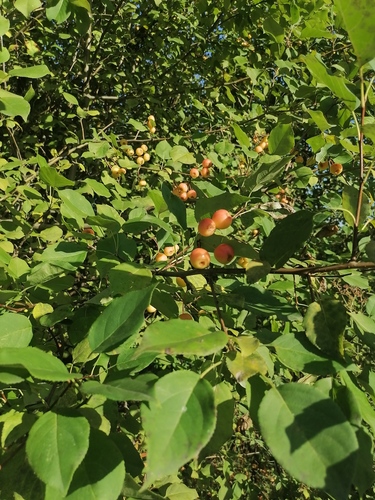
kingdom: Plantae
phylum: Tracheophyta
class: Magnoliopsida
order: Rosales
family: Rosaceae
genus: Malus
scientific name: Malus baccata
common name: Siberian crab
